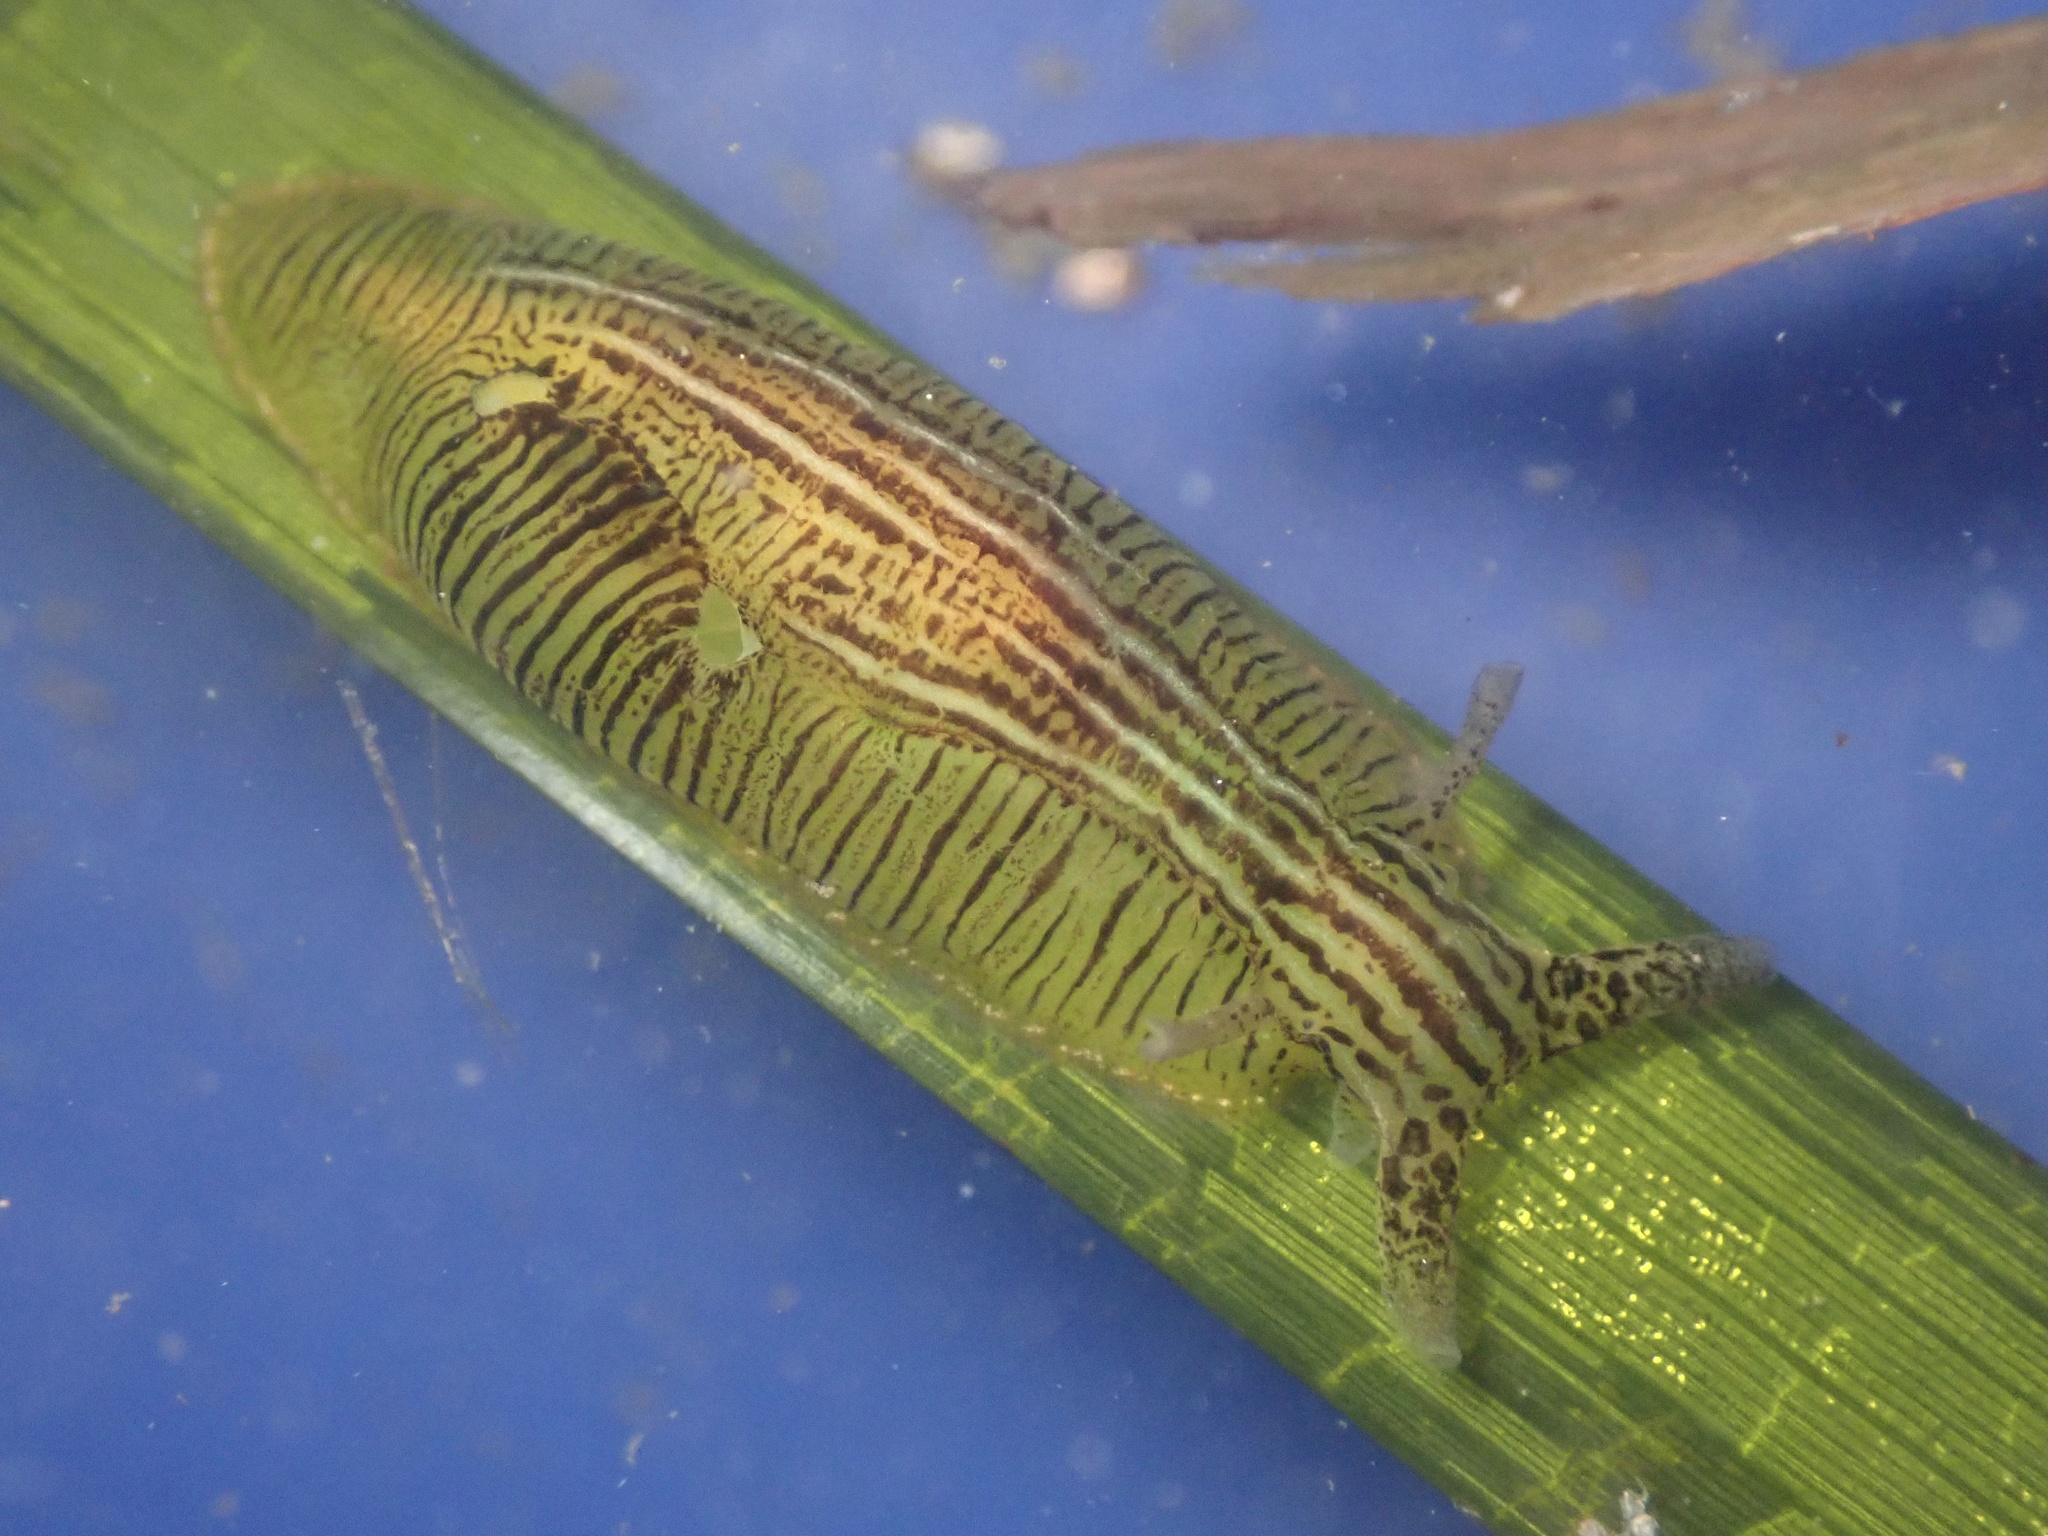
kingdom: Animalia
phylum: Mollusca
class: Gastropoda
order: Aplysiida
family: Aplysiidae
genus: Phyllaplysia
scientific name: Phyllaplysia taylori
